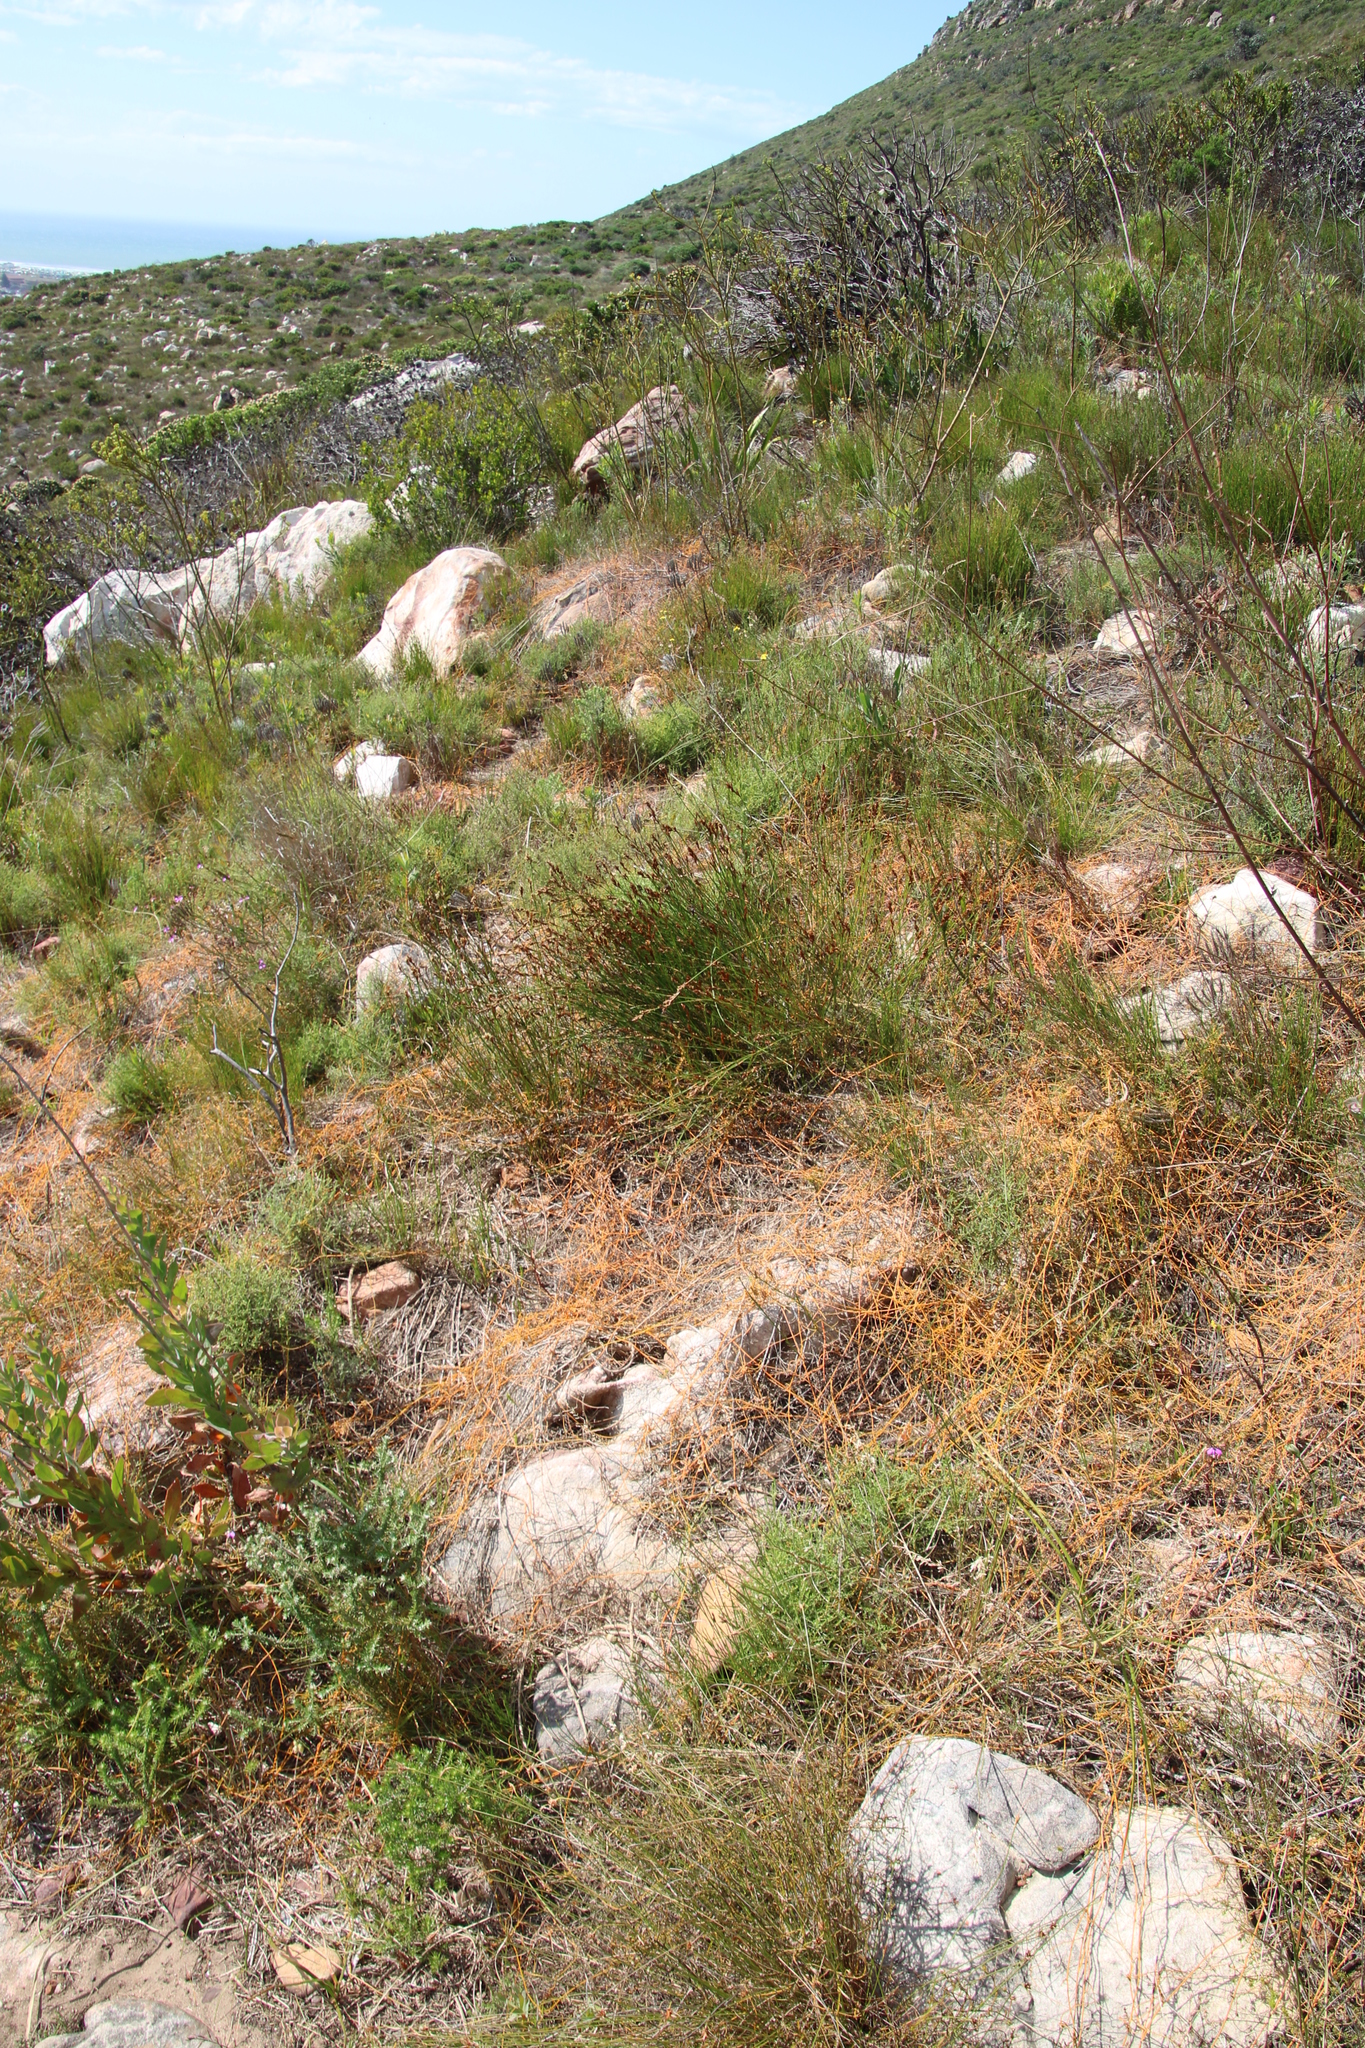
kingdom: Plantae
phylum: Tracheophyta
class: Magnoliopsida
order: Laurales
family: Lauraceae
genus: Cassytha
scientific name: Cassytha ciliolata
